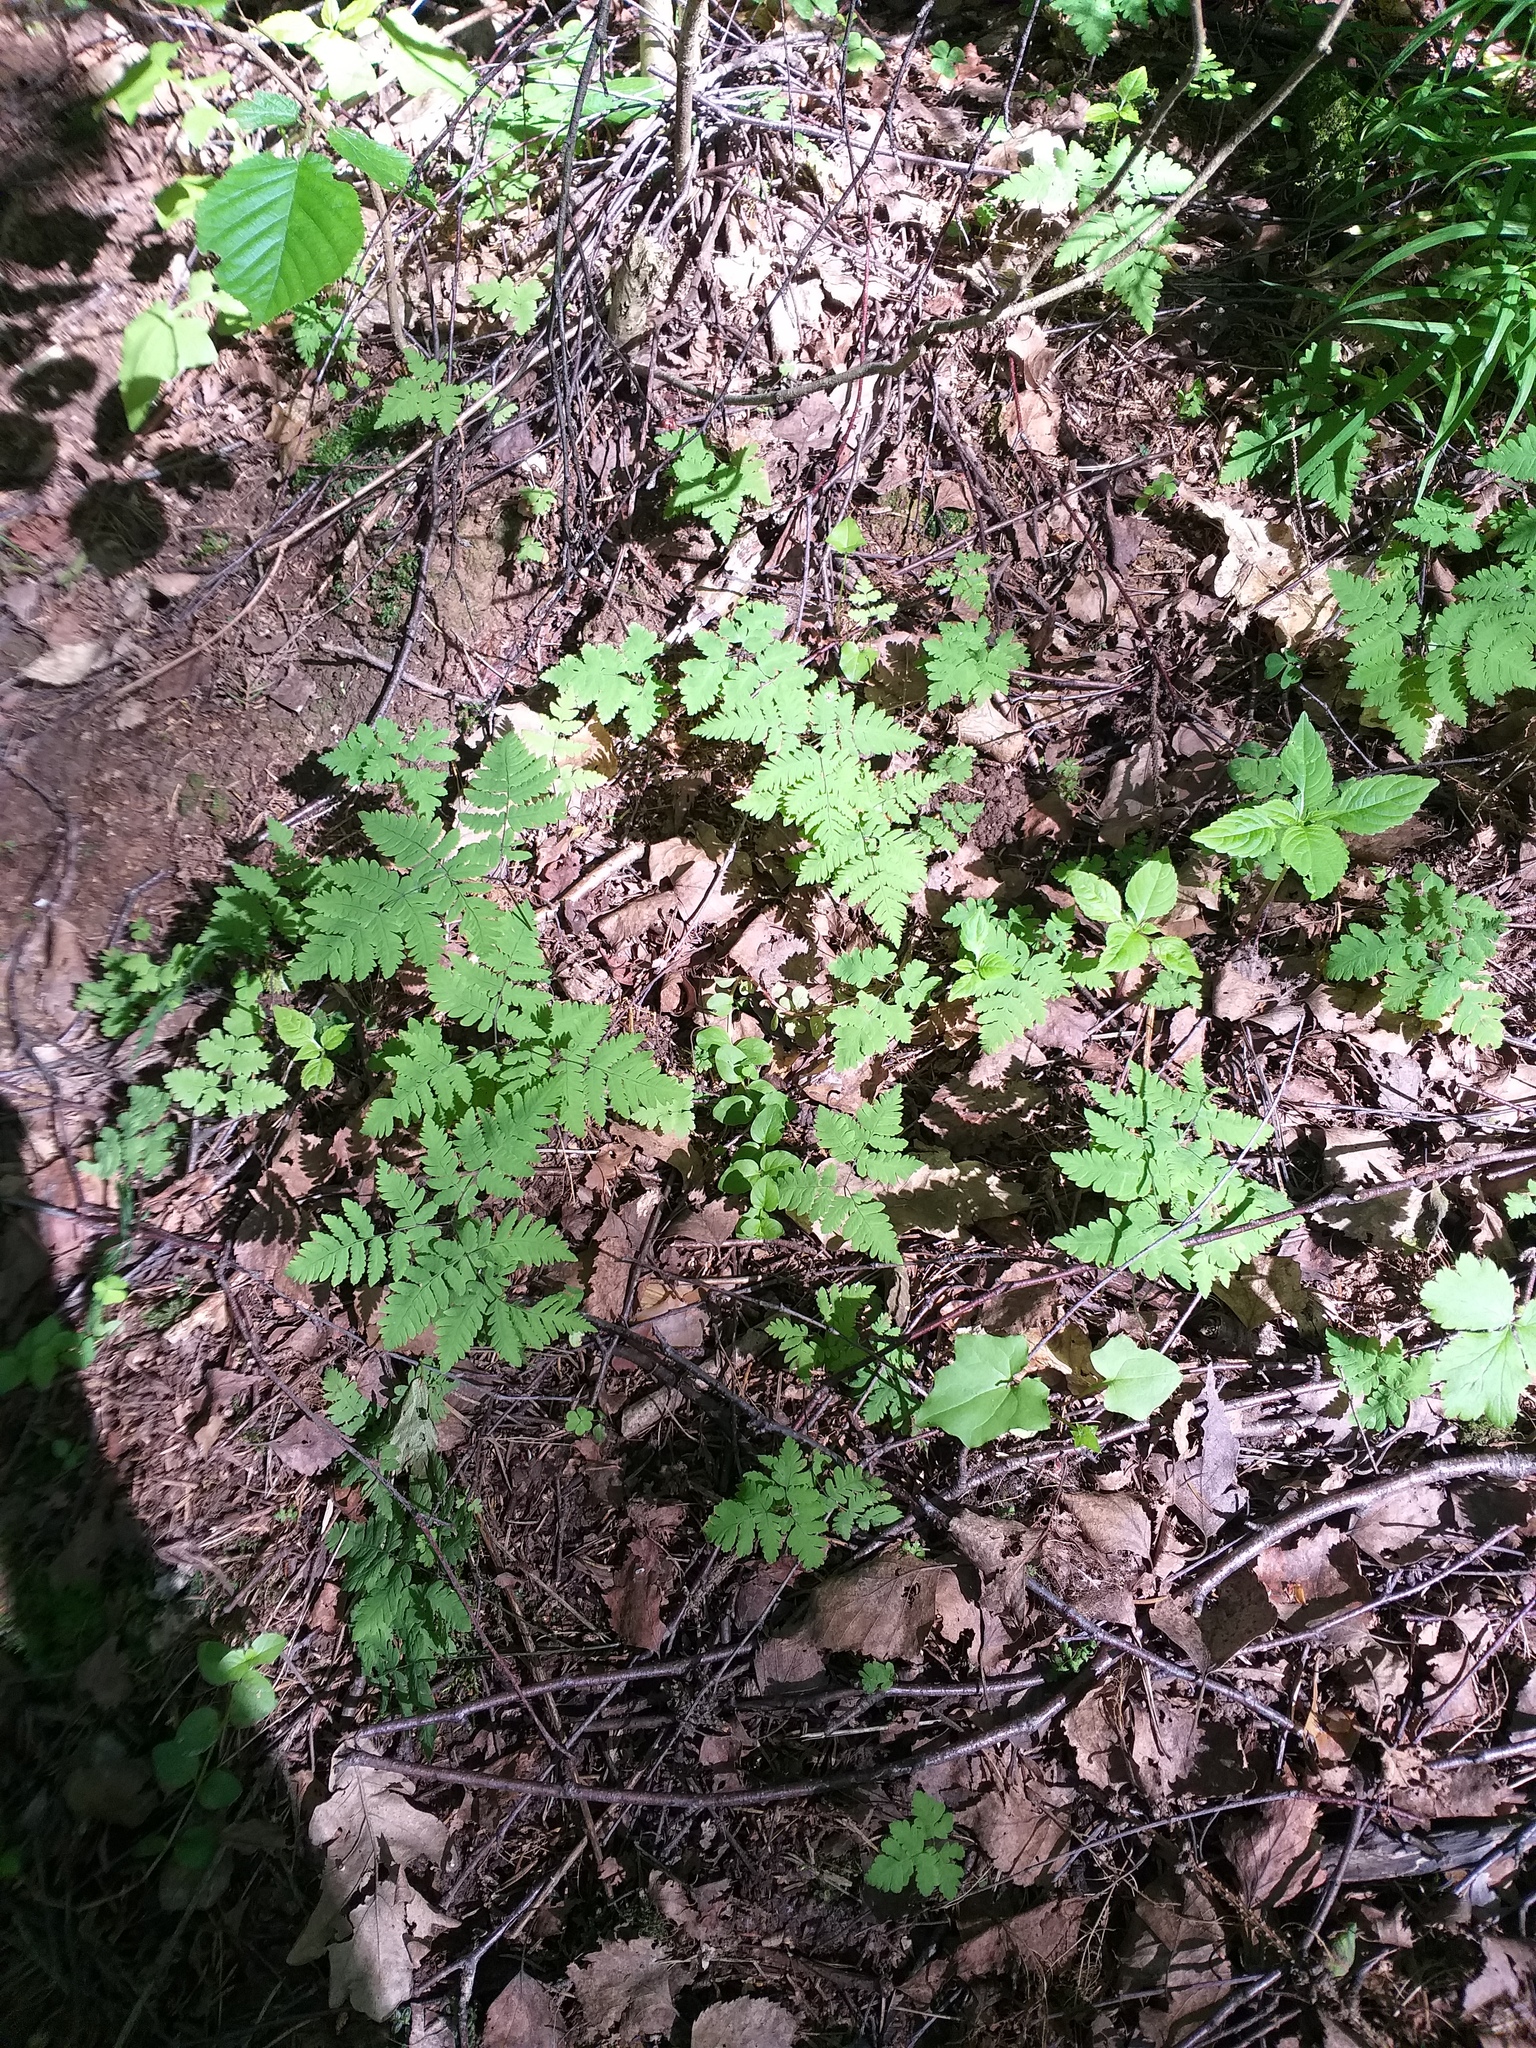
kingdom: Plantae
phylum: Tracheophyta
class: Polypodiopsida
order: Polypodiales
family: Cystopteridaceae
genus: Gymnocarpium
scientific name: Gymnocarpium dryopteris
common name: Oak fern
